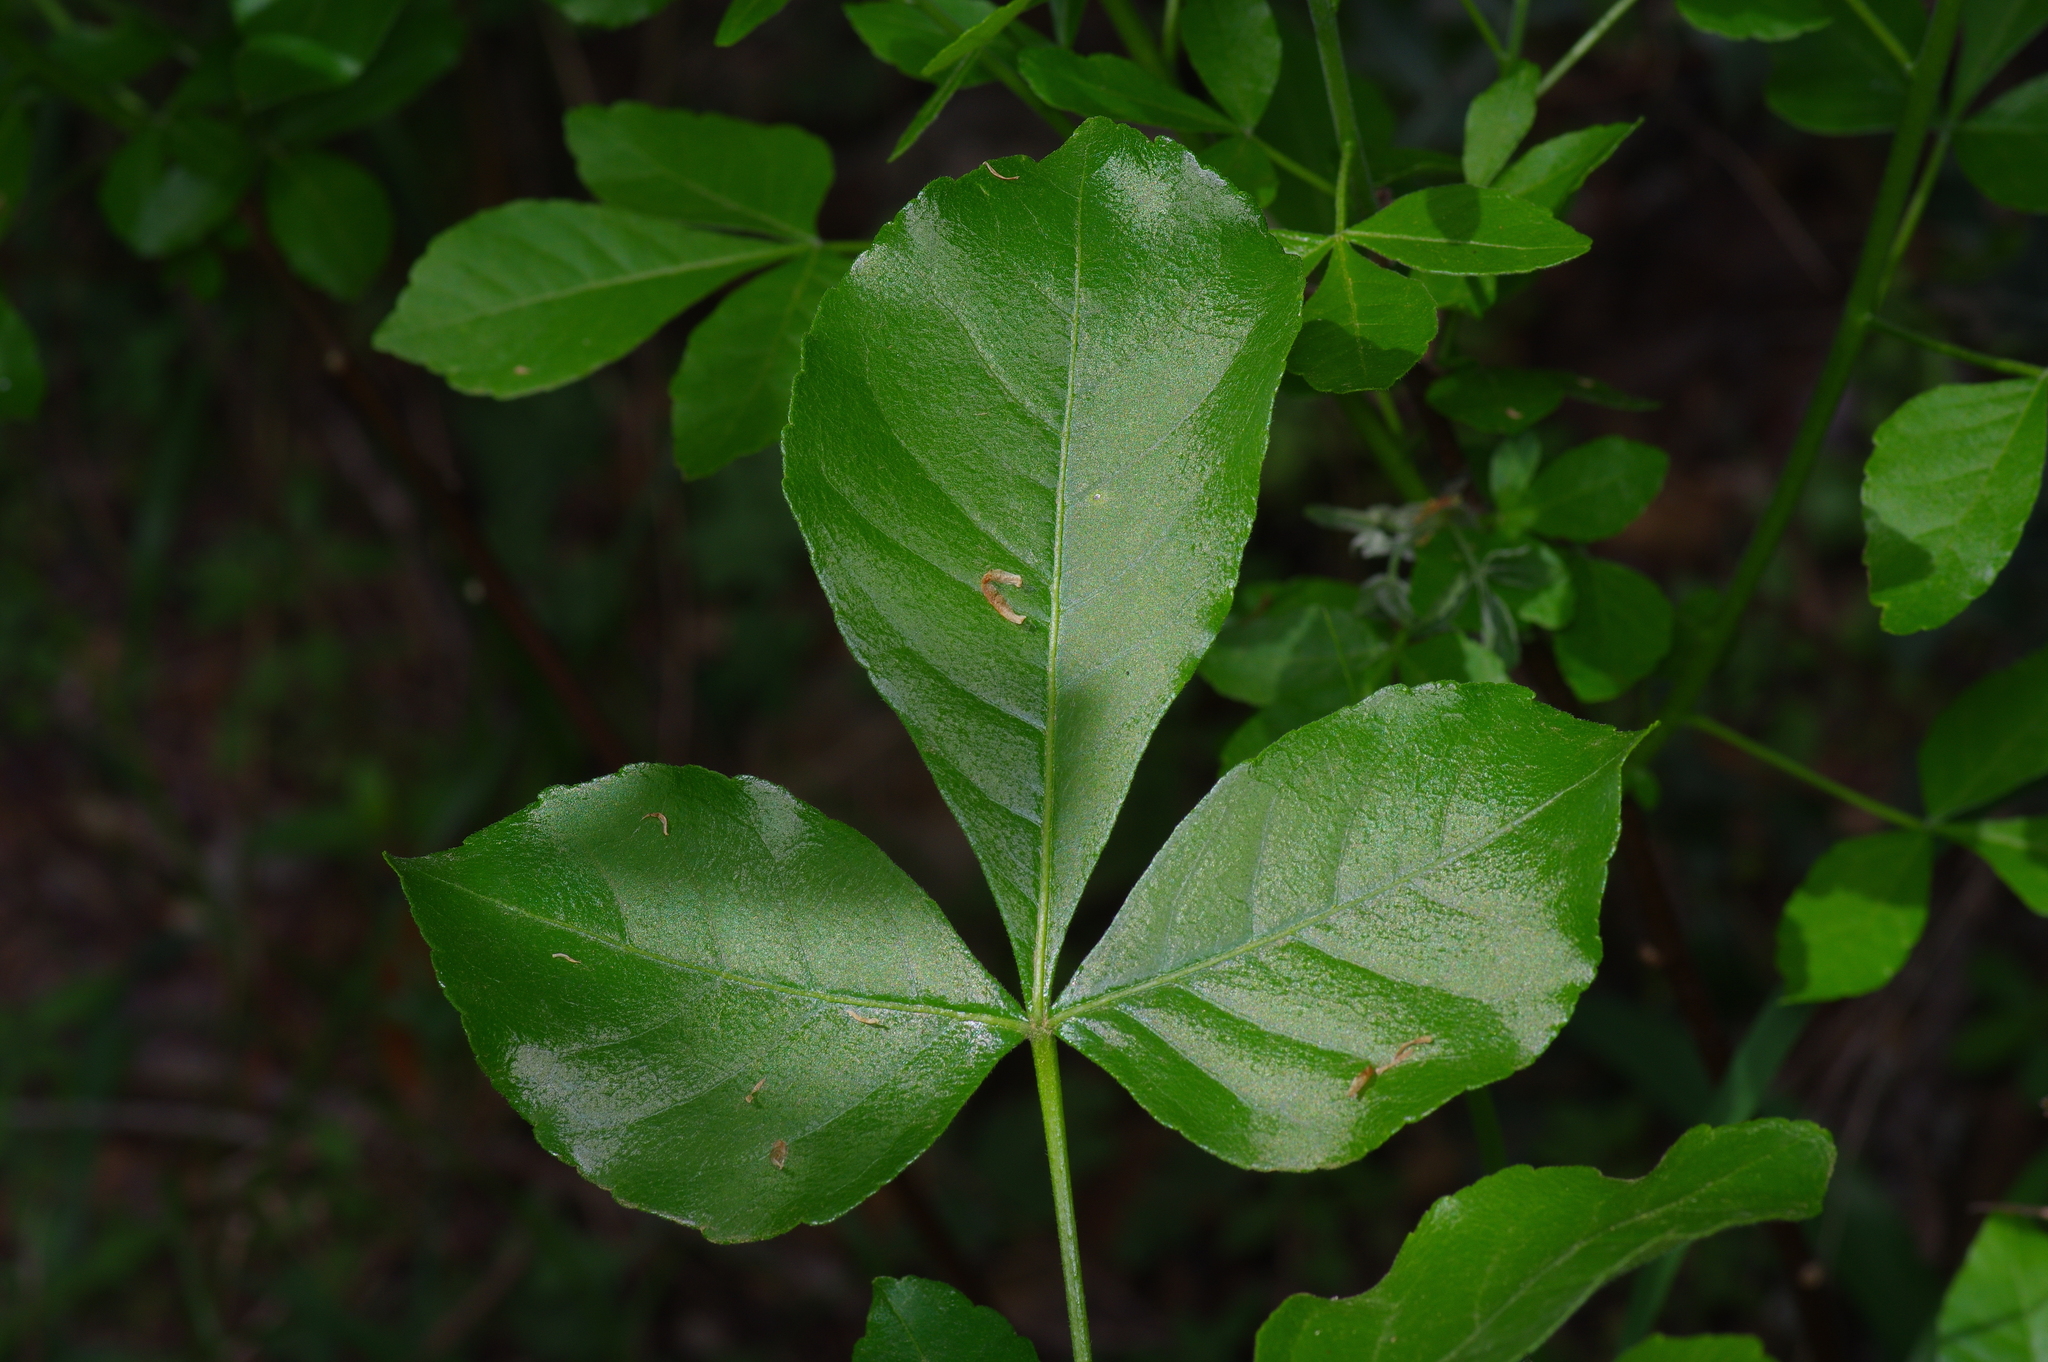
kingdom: Plantae
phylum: Tracheophyta
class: Magnoliopsida
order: Sapindales
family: Rutaceae
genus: Ptelea
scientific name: Ptelea trifoliata
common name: Common hop-tree
